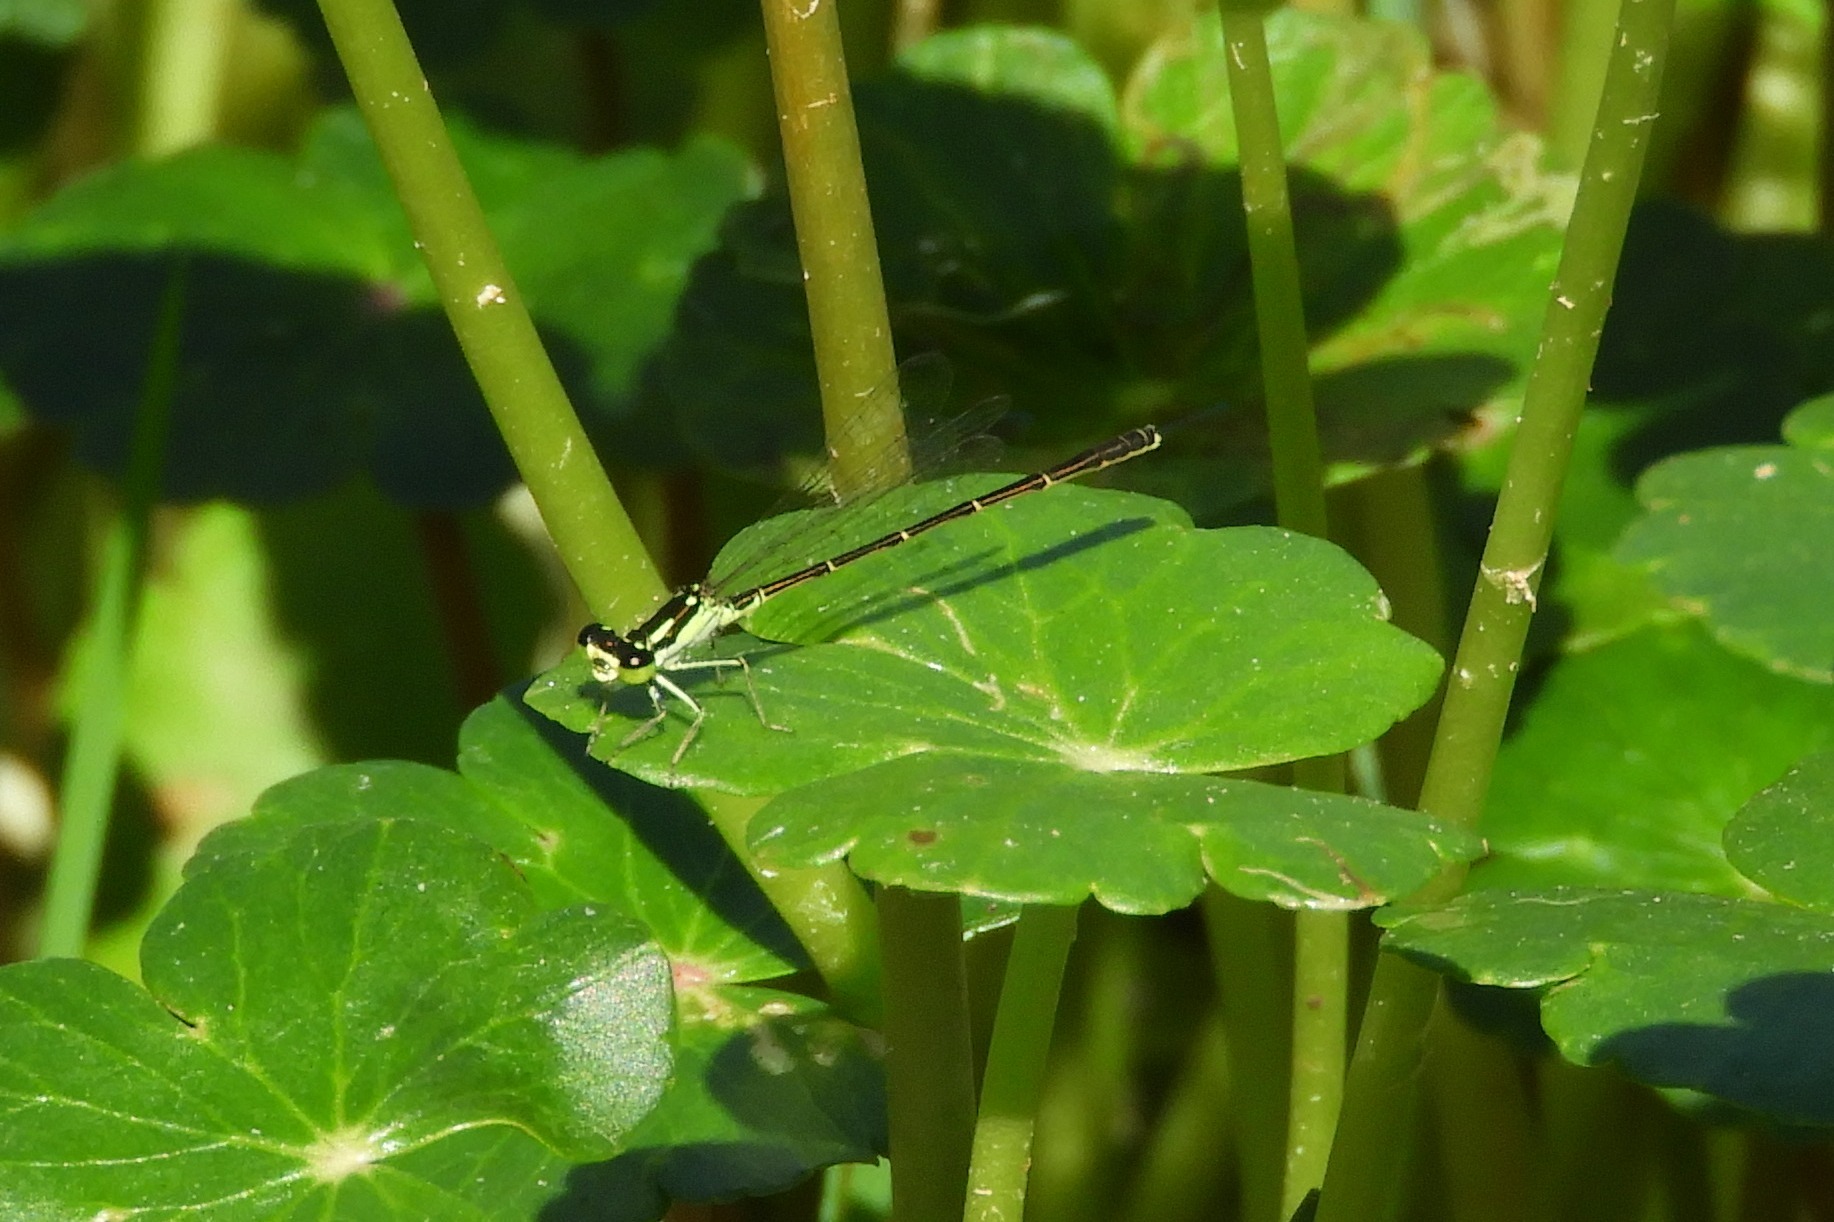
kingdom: Animalia
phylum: Arthropoda
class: Insecta
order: Odonata
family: Coenagrionidae
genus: Ischnura
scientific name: Ischnura posita
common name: Fragile forktail
